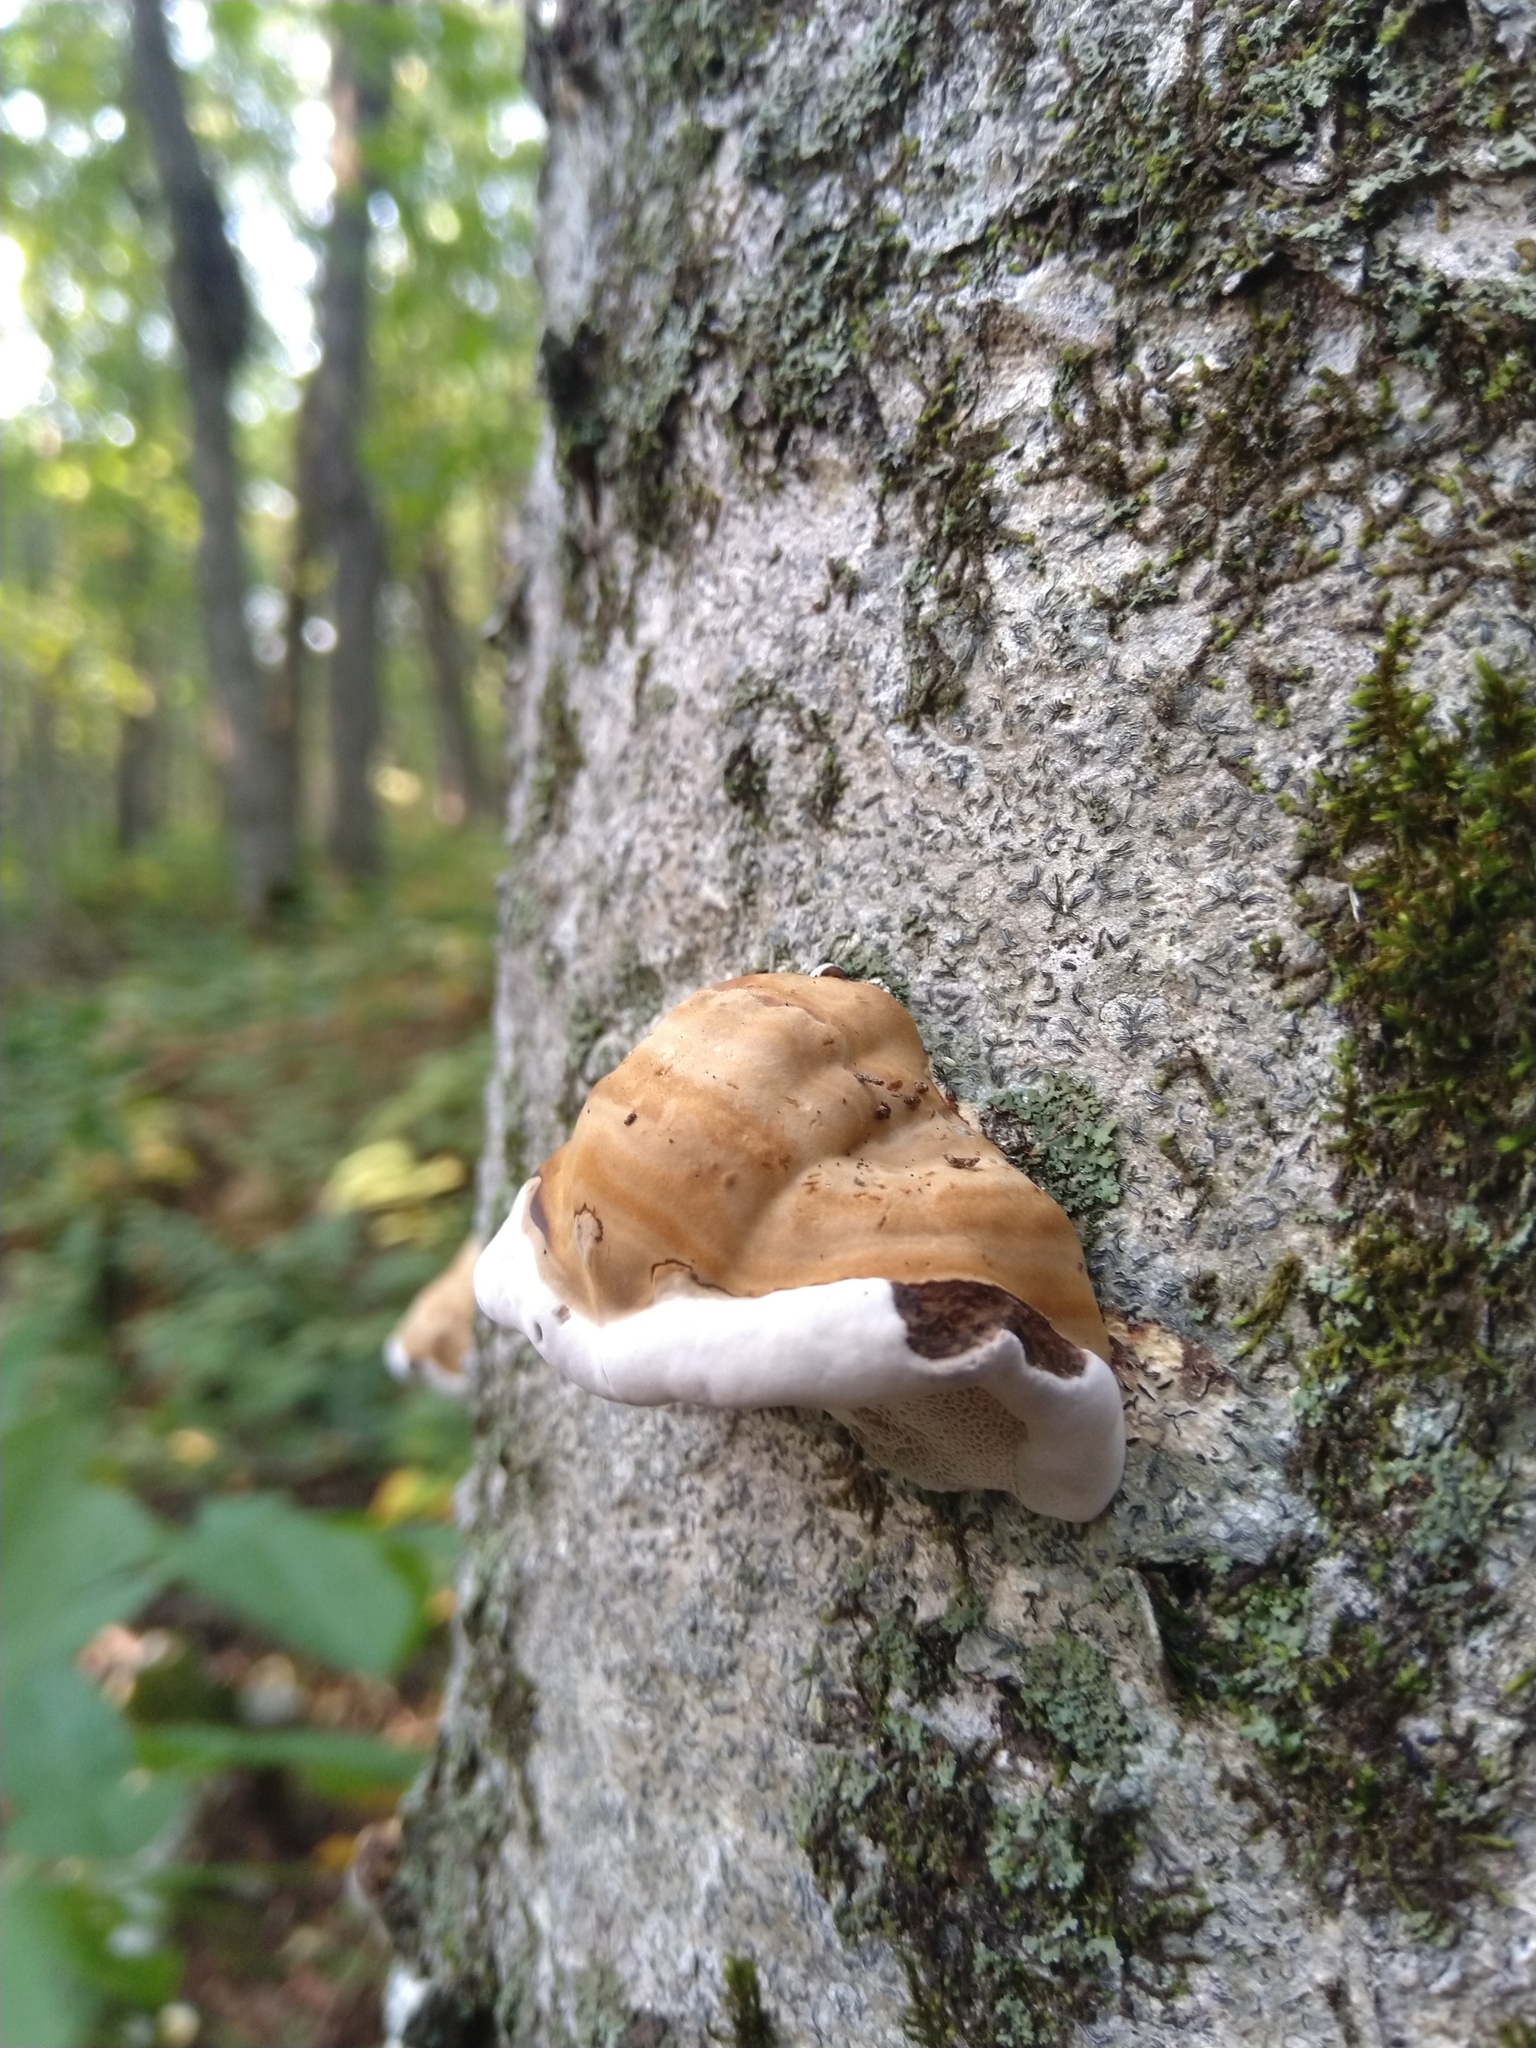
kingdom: Fungi
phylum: Basidiomycota
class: Agaricomycetes
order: Polyporales
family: Polyporaceae
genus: Fomes
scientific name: Fomes fomentarius
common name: Hoof fungus
